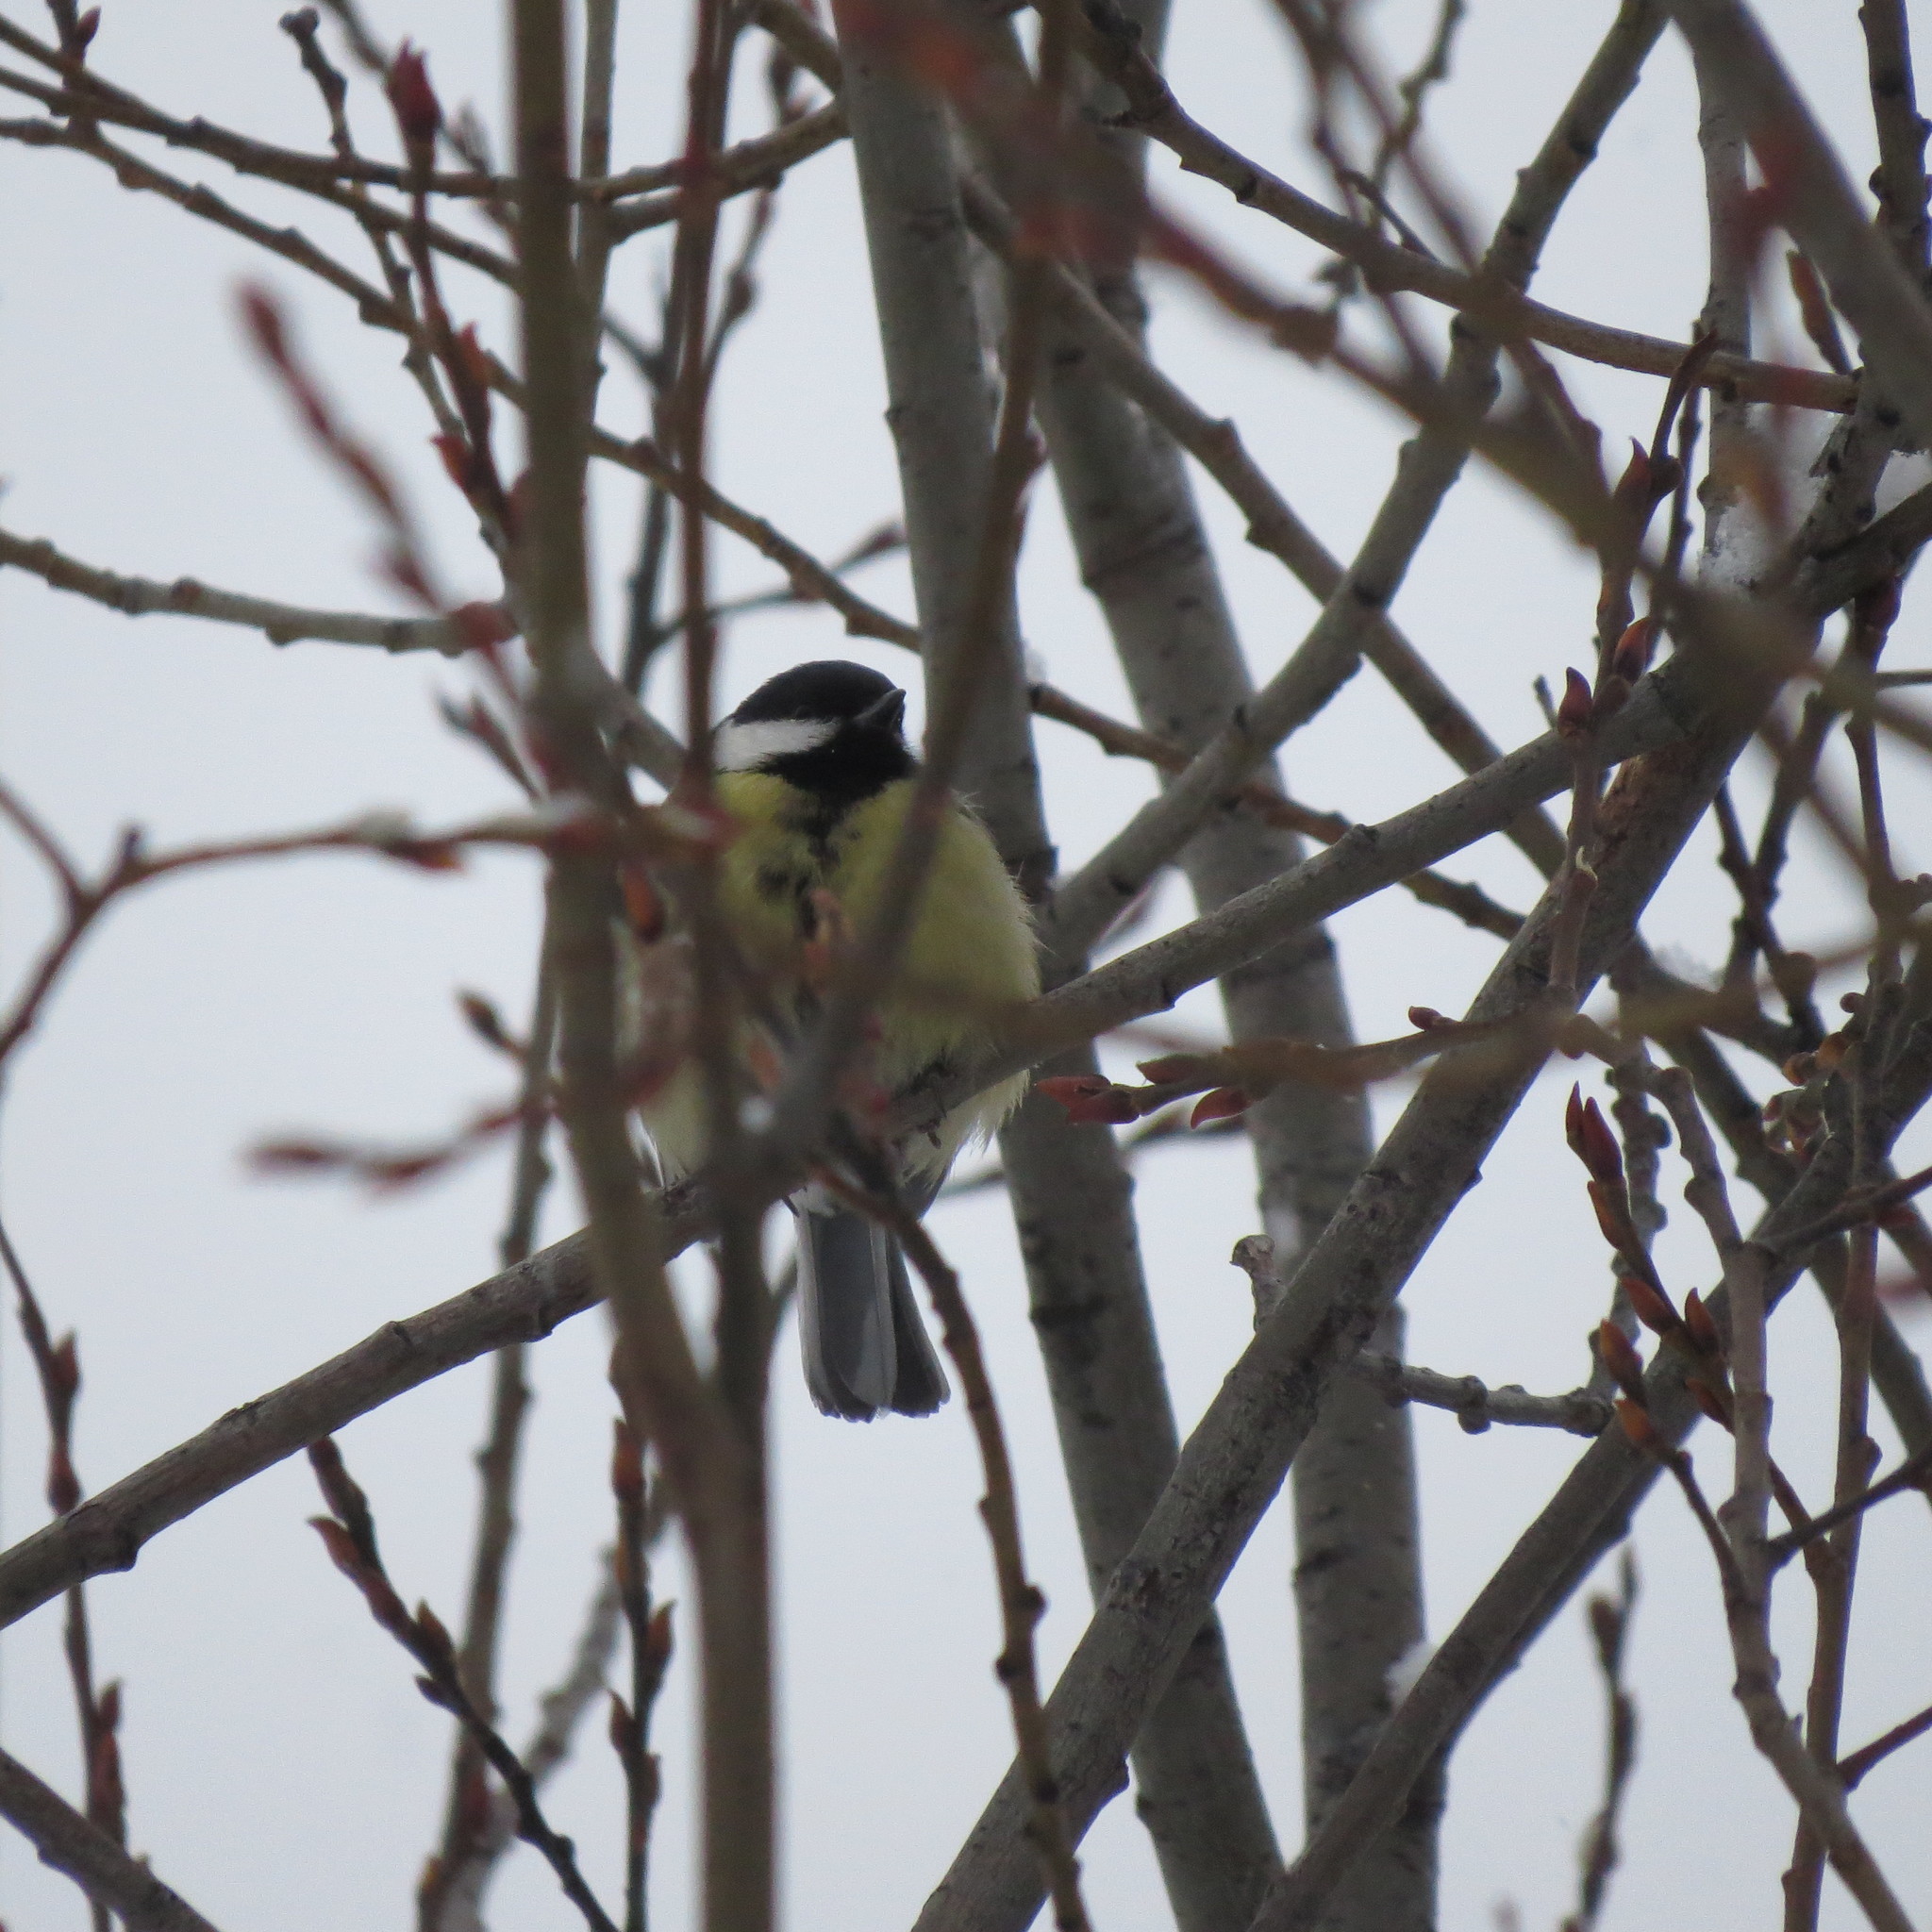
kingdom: Animalia
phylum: Chordata
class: Aves
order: Passeriformes
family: Paridae
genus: Parus
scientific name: Parus major
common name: Great tit
